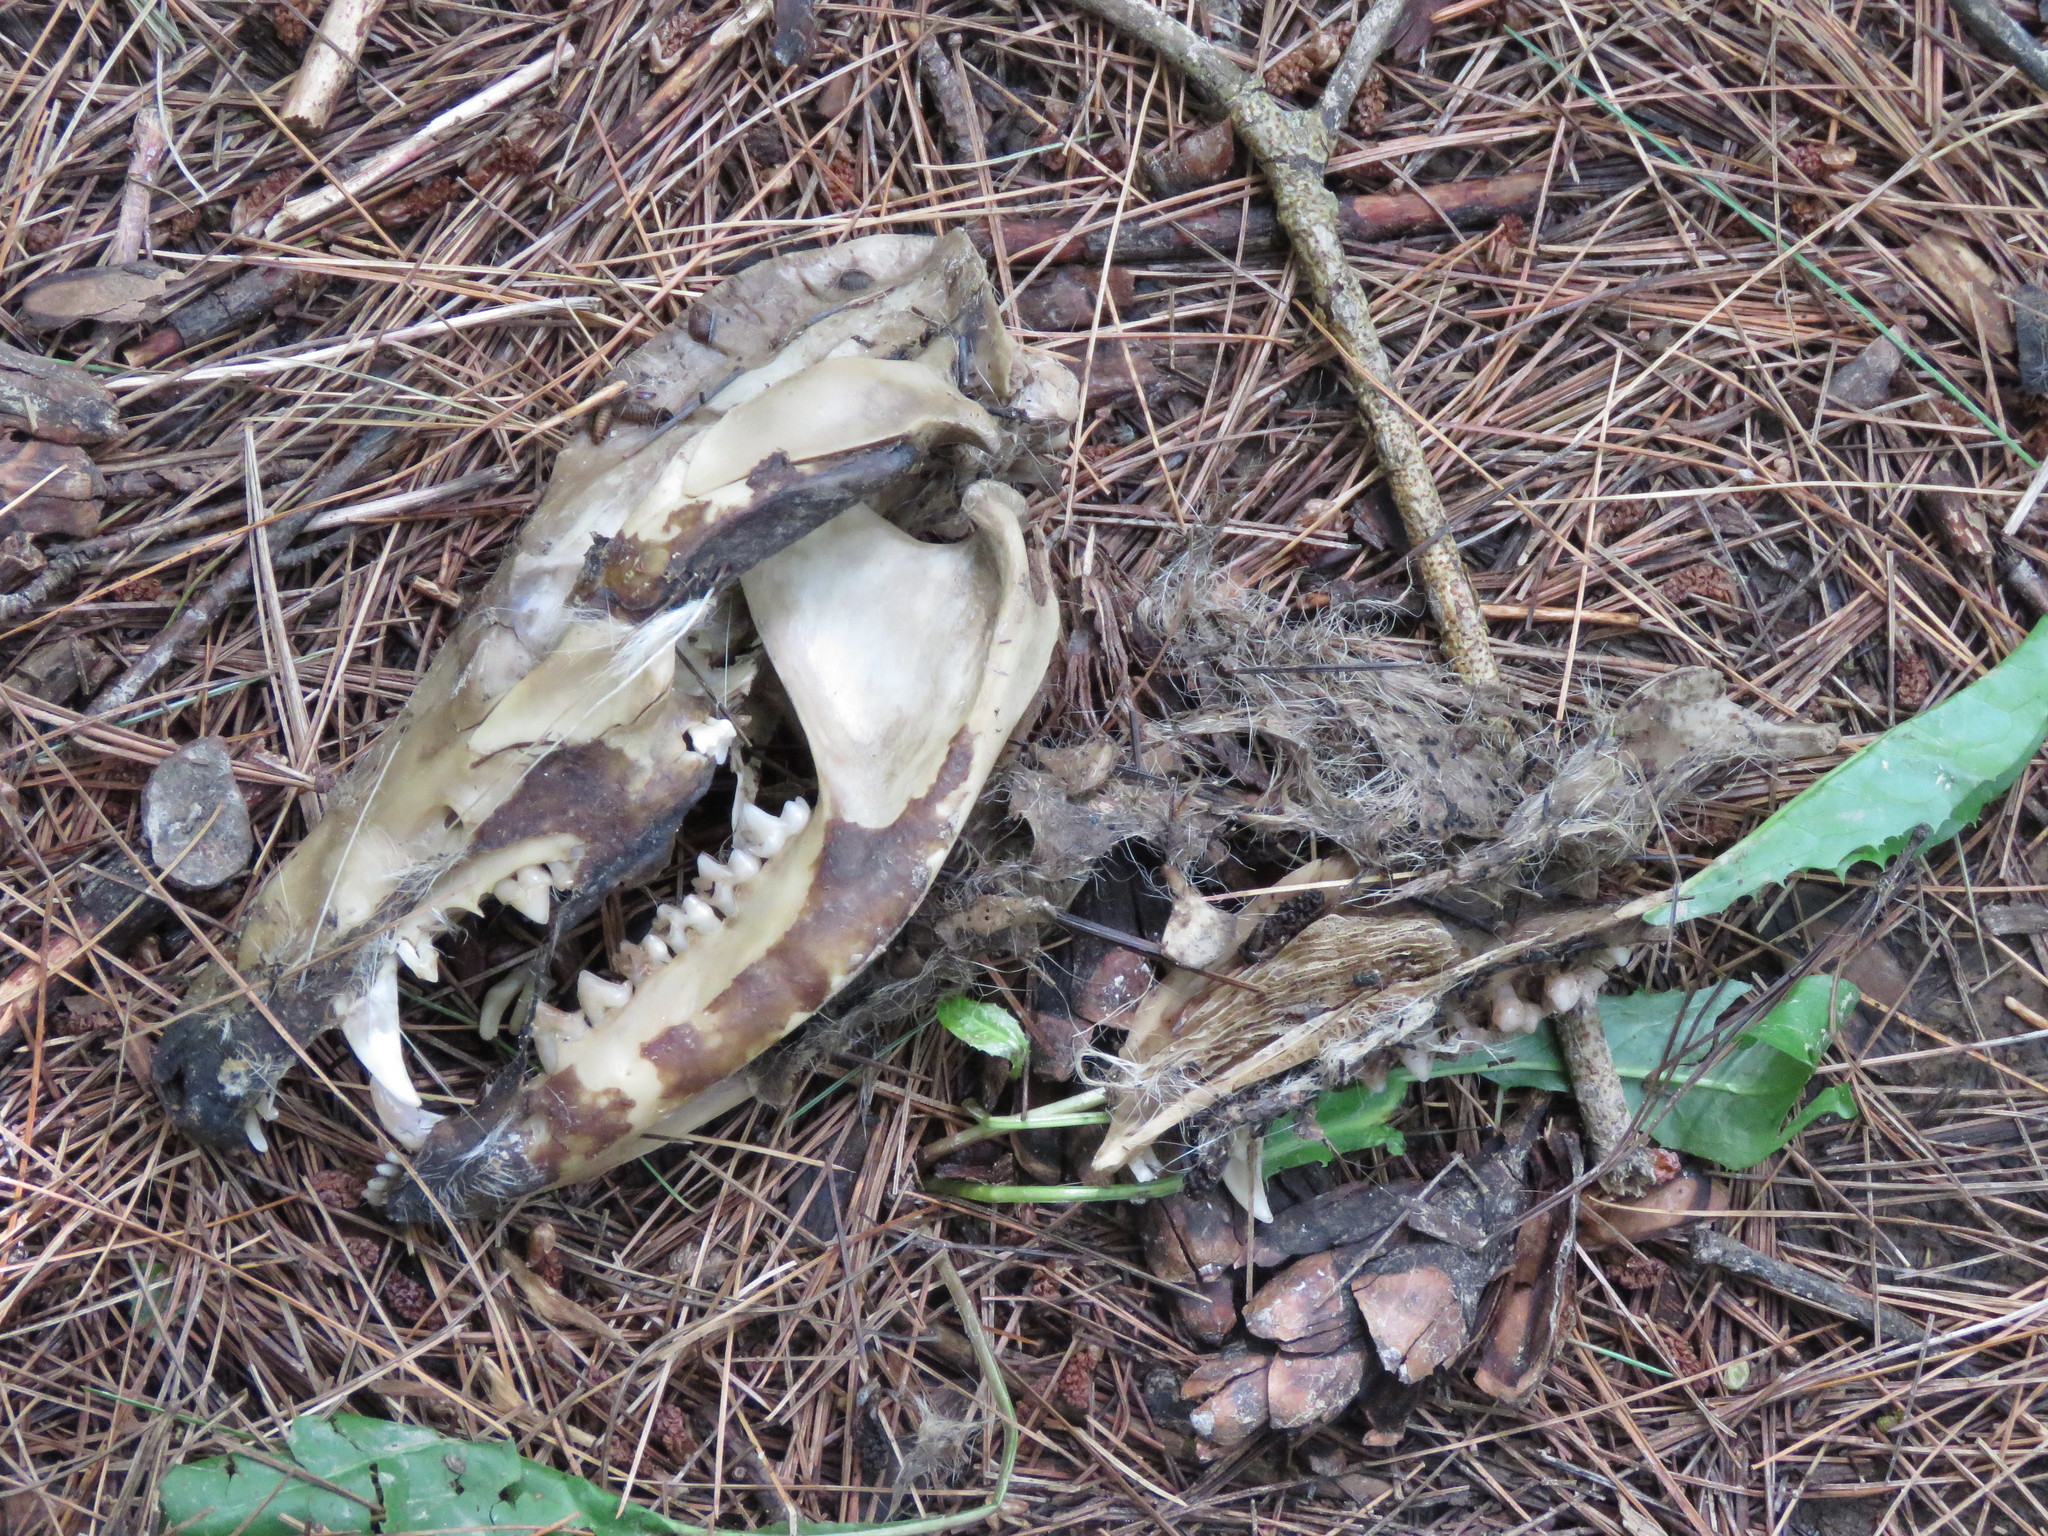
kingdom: Animalia
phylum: Chordata
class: Mammalia
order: Didelphimorphia
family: Didelphidae
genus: Didelphis
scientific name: Didelphis virginiana
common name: Virginia opossum
